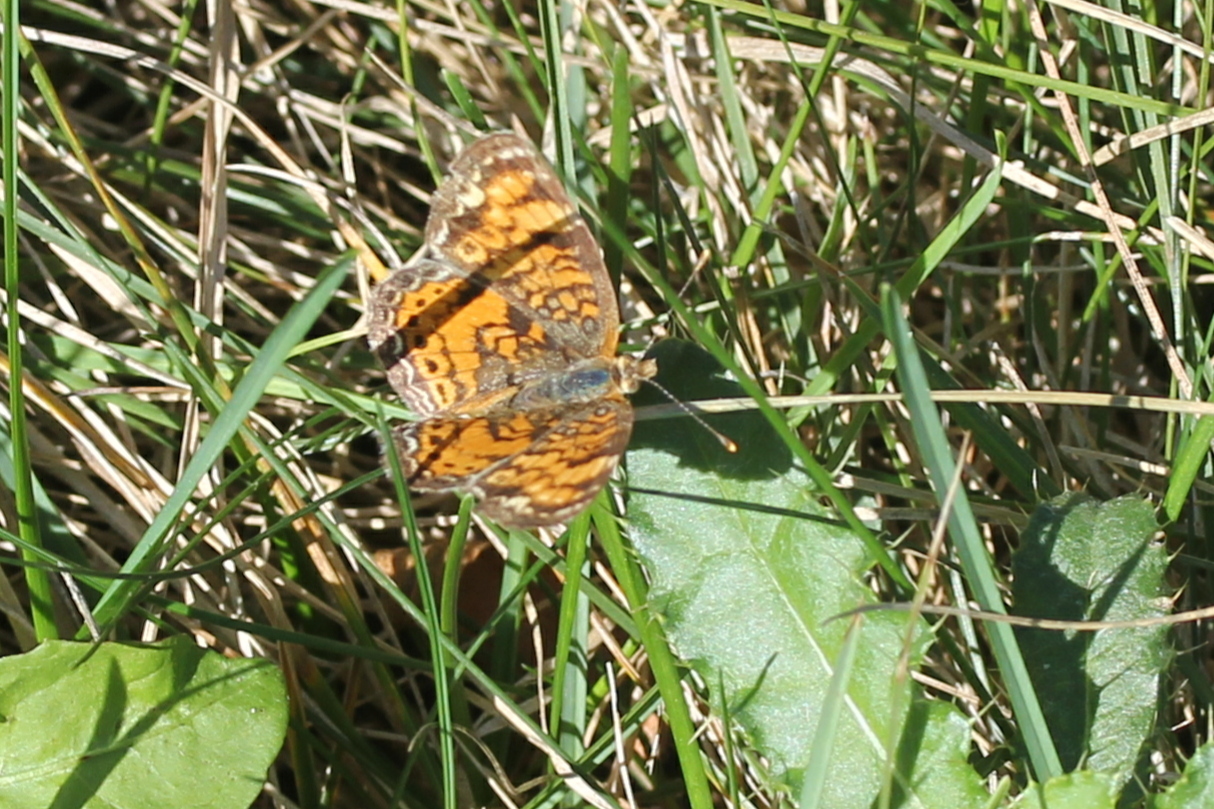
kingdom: Animalia
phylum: Arthropoda
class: Insecta
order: Lepidoptera
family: Nymphalidae
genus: Phyciodes
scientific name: Phyciodes tharos
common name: Pearl crescent
